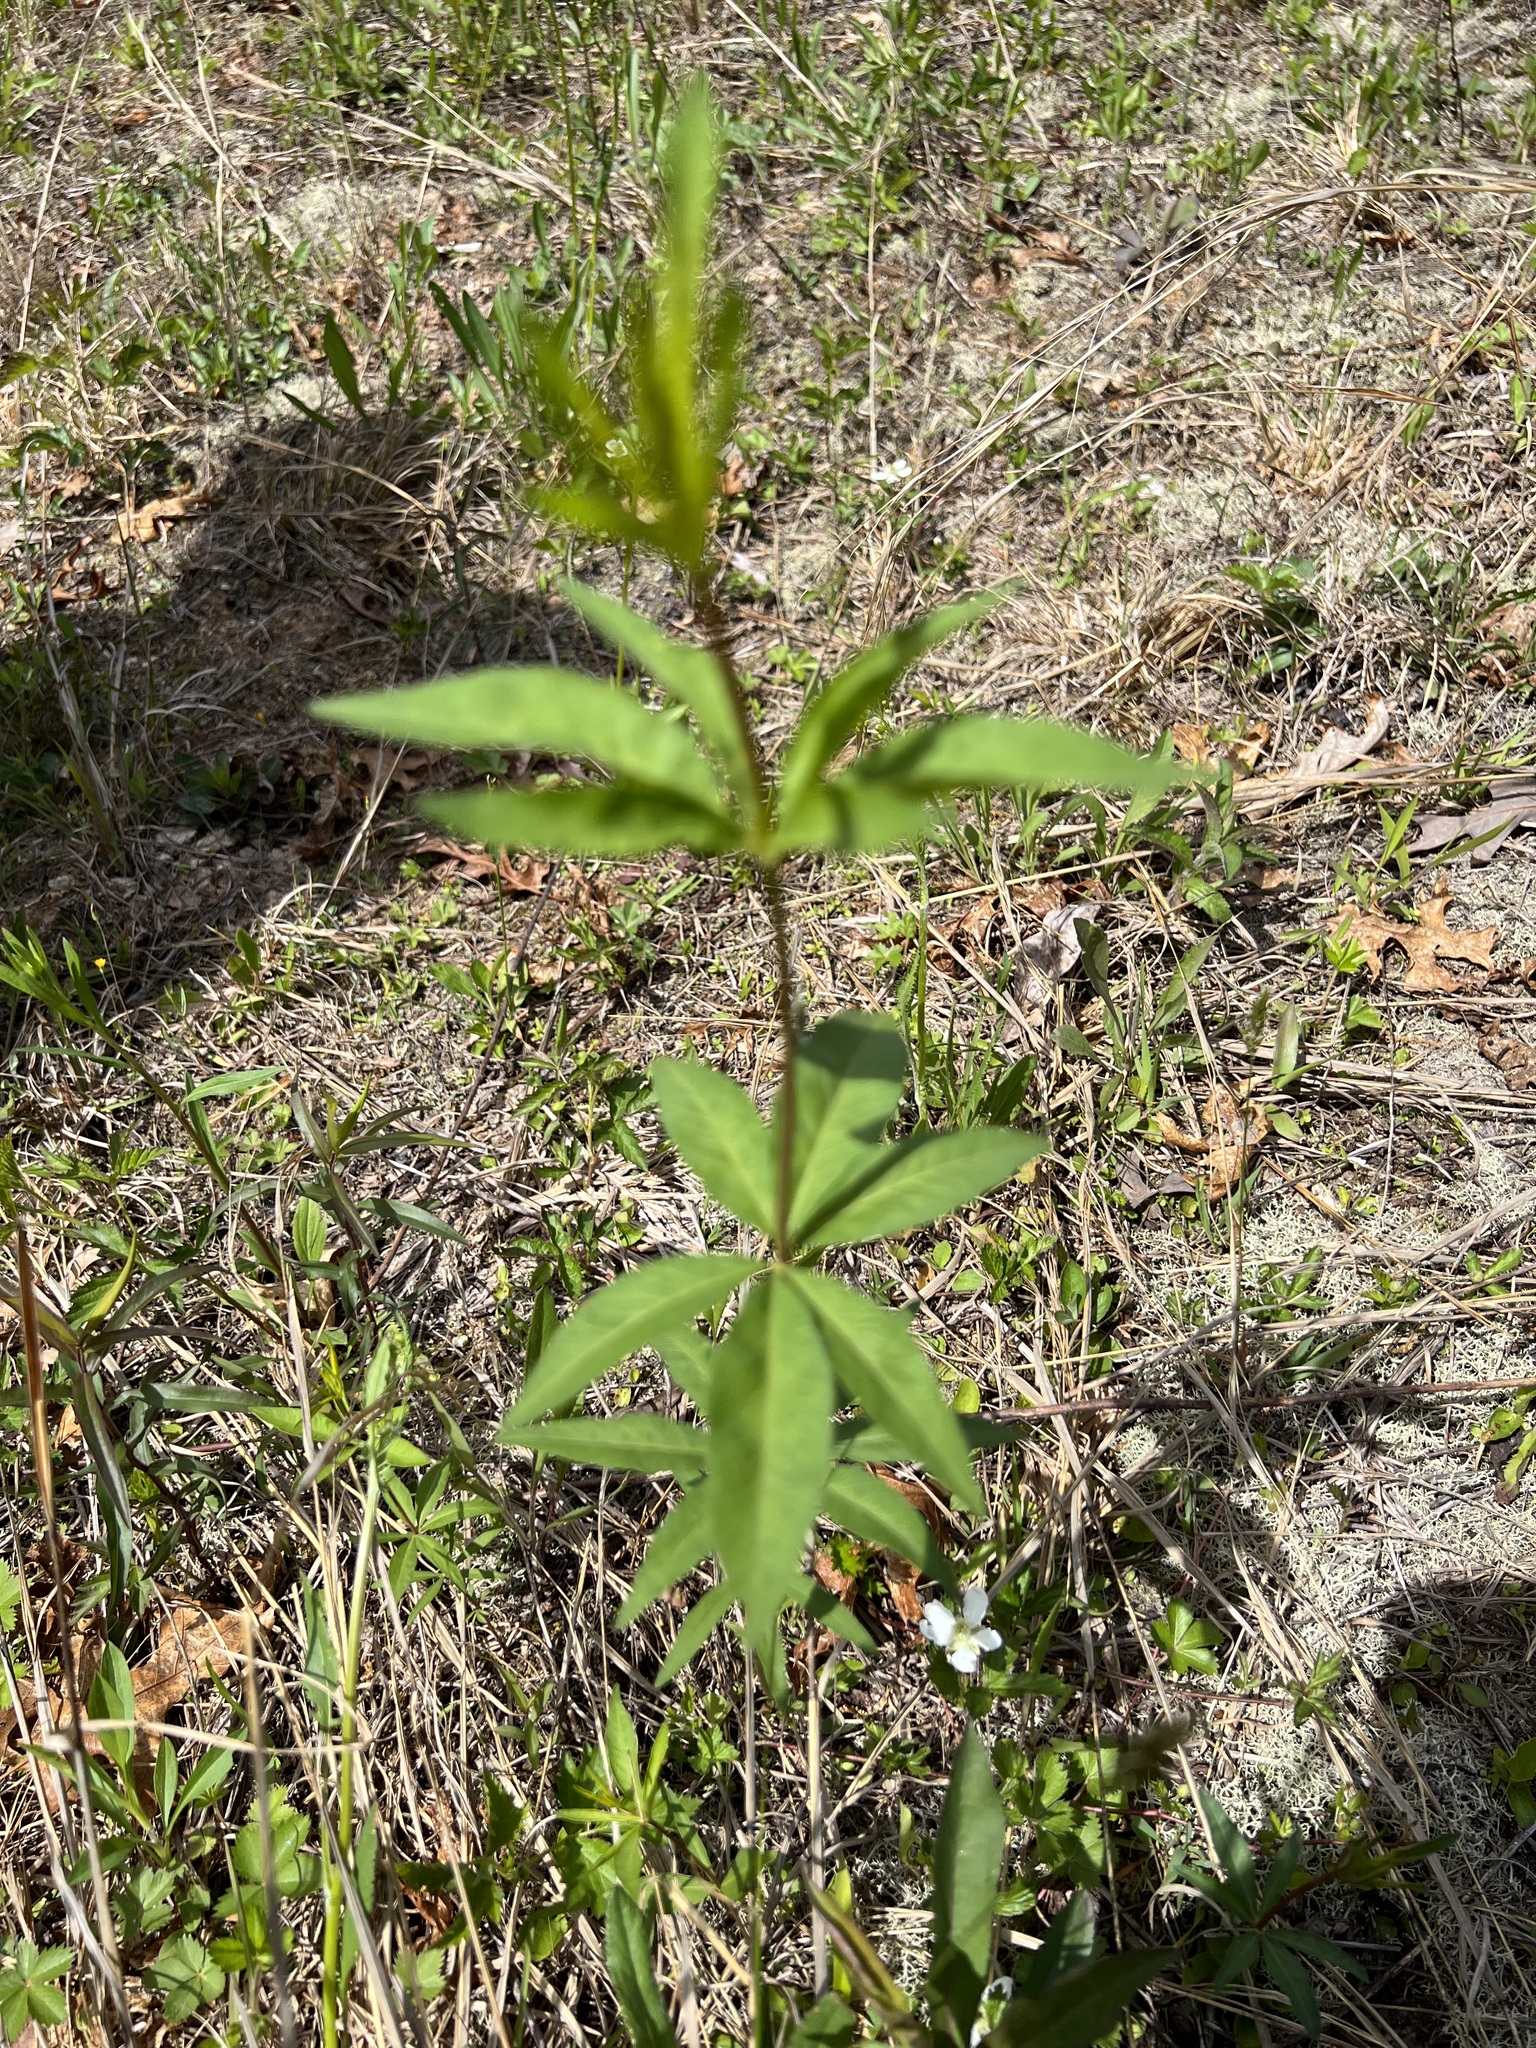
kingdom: Plantae
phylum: Tracheophyta
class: Magnoliopsida
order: Asterales
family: Asteraceae
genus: Coreopsis
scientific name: Coreopsis major
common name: Forest tickseed
